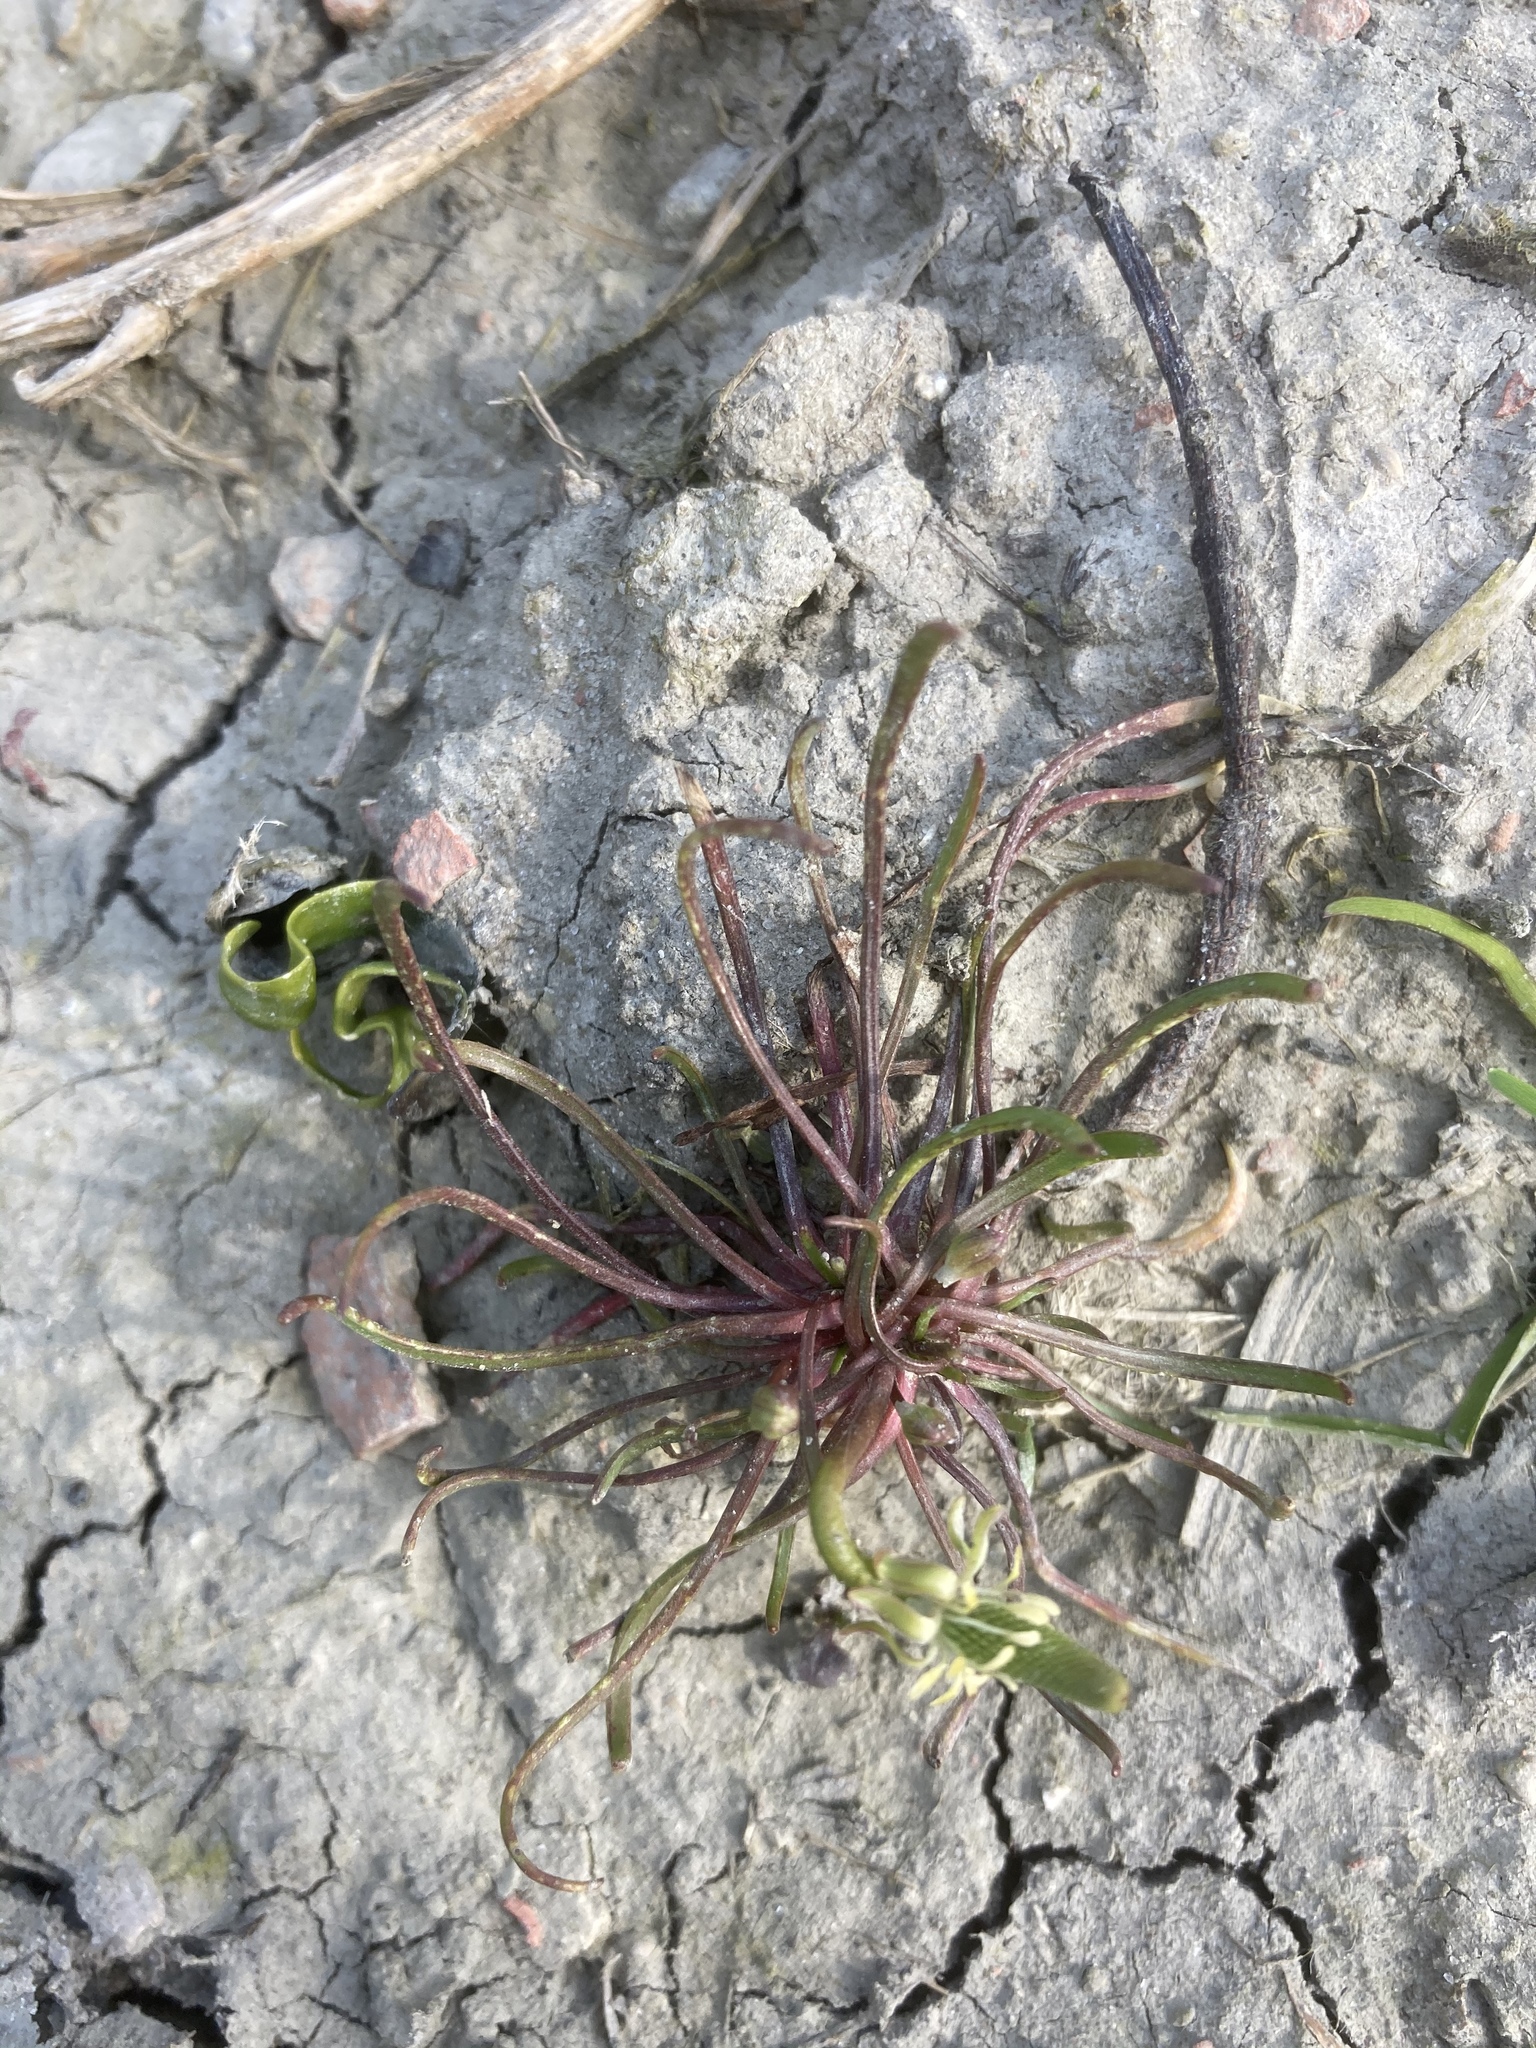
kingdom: Plantae
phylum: Tracheophyta
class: Magnoliopsida
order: Ranunculales
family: Ranunculaceae
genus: Myosurus
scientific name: Myosurus minimus
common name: Mousetail
